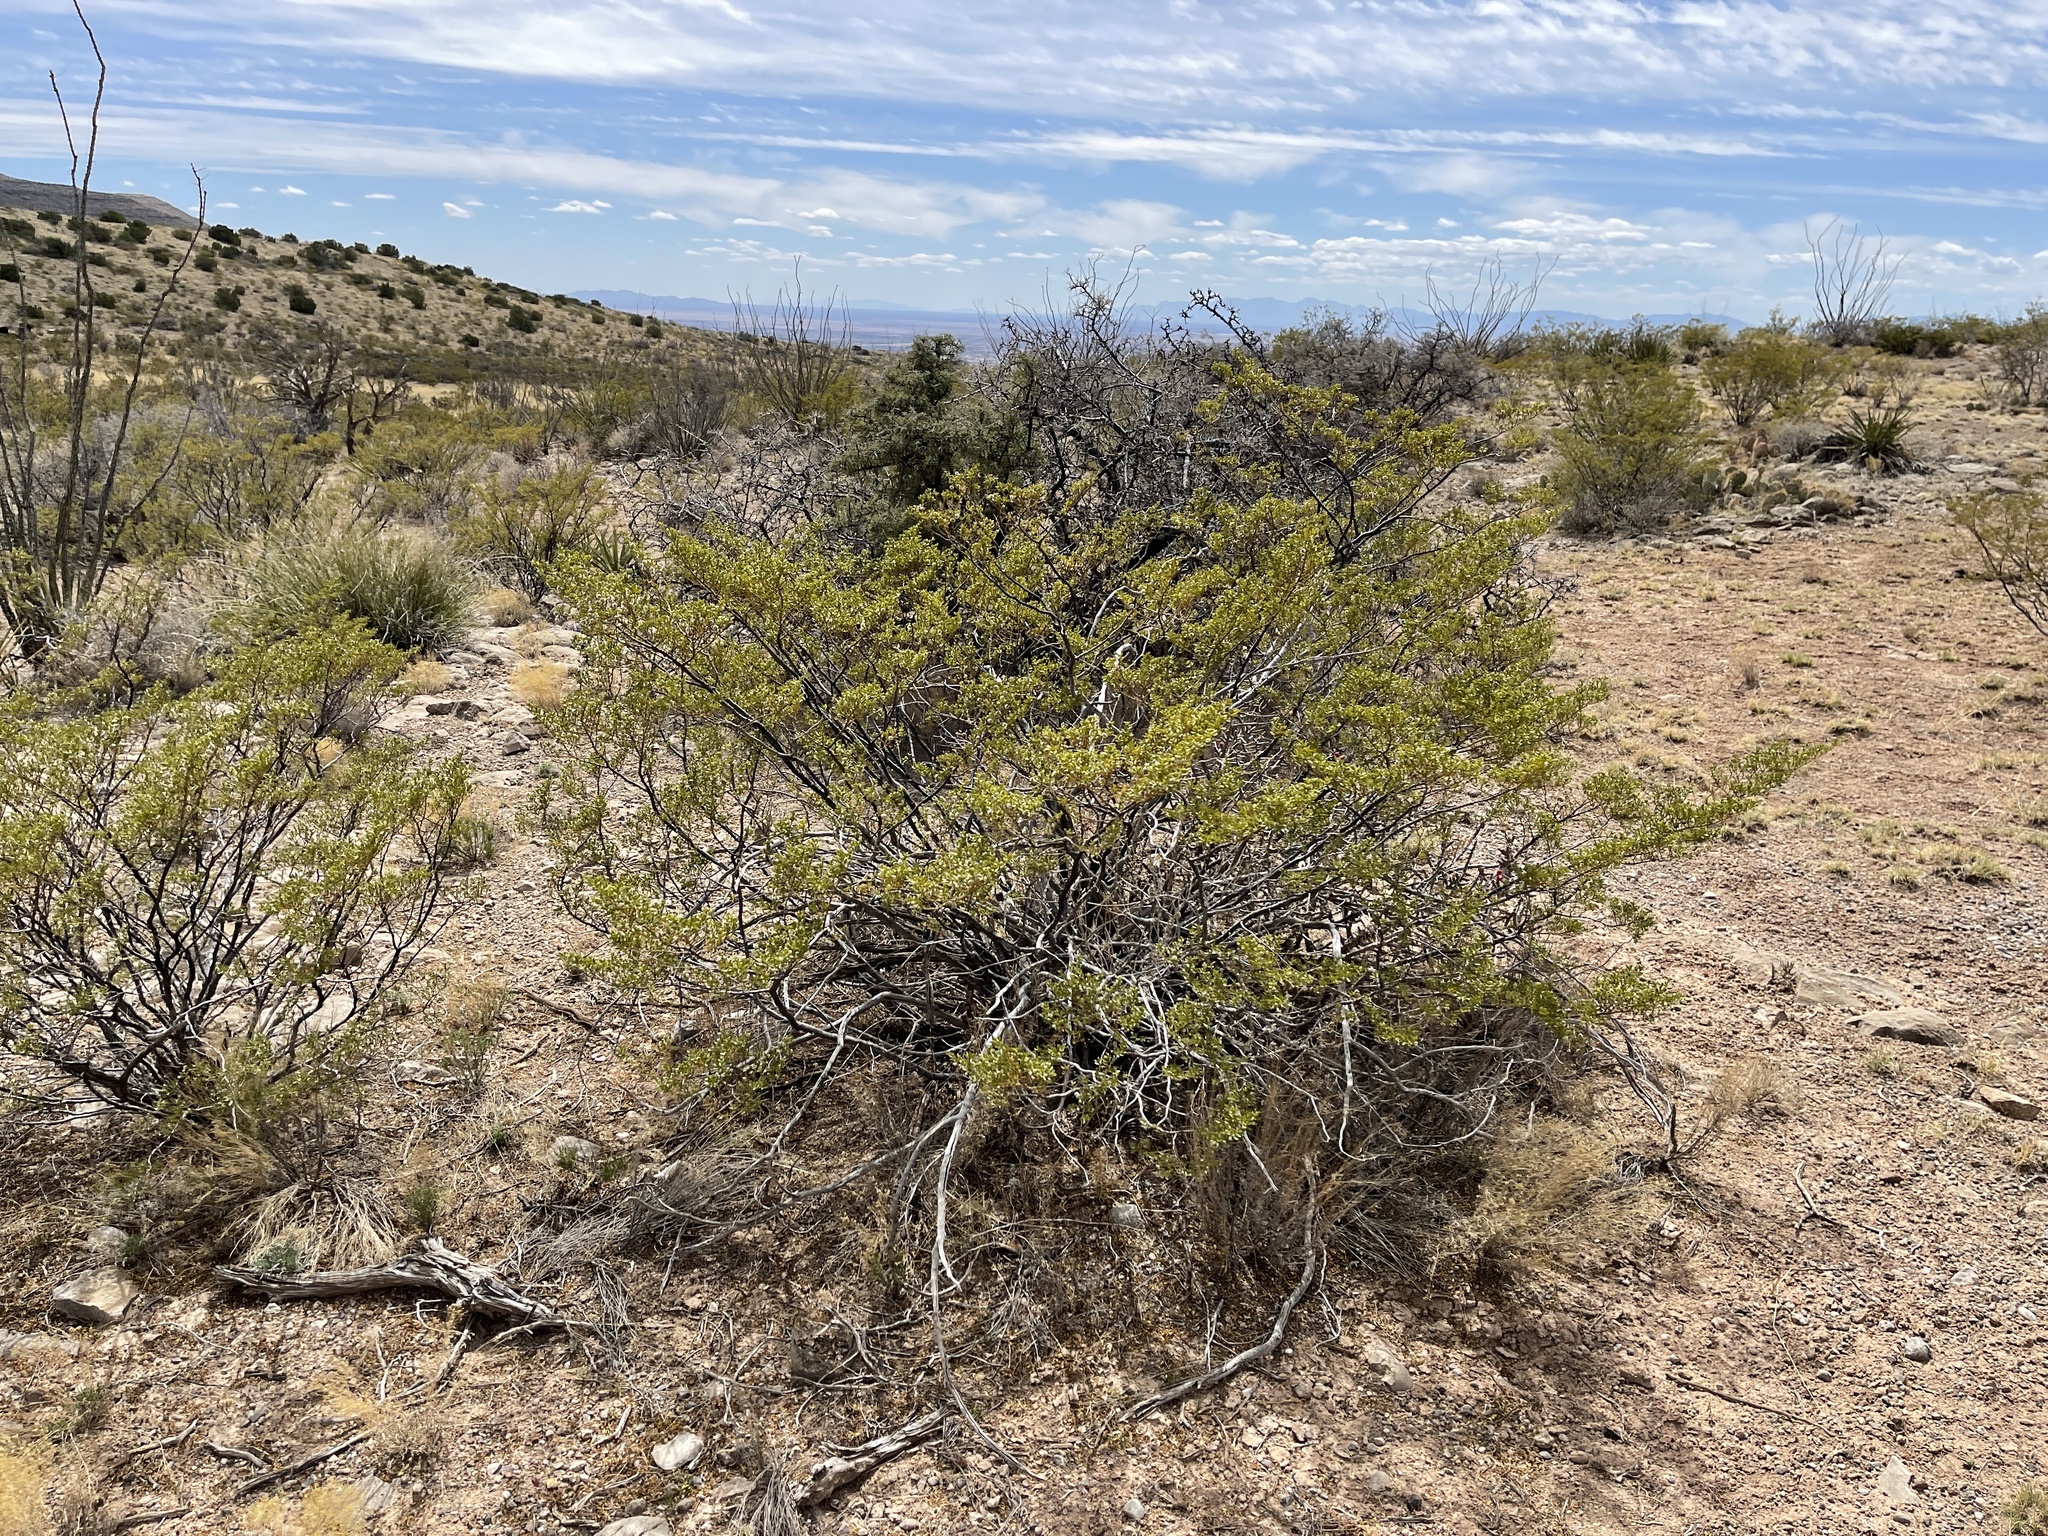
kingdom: Plantae
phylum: Tracheophyta
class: Magnoliopsida
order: Zygophyllales
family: Zygophyllaceae
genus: Larrea
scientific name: Larrea tridentata
